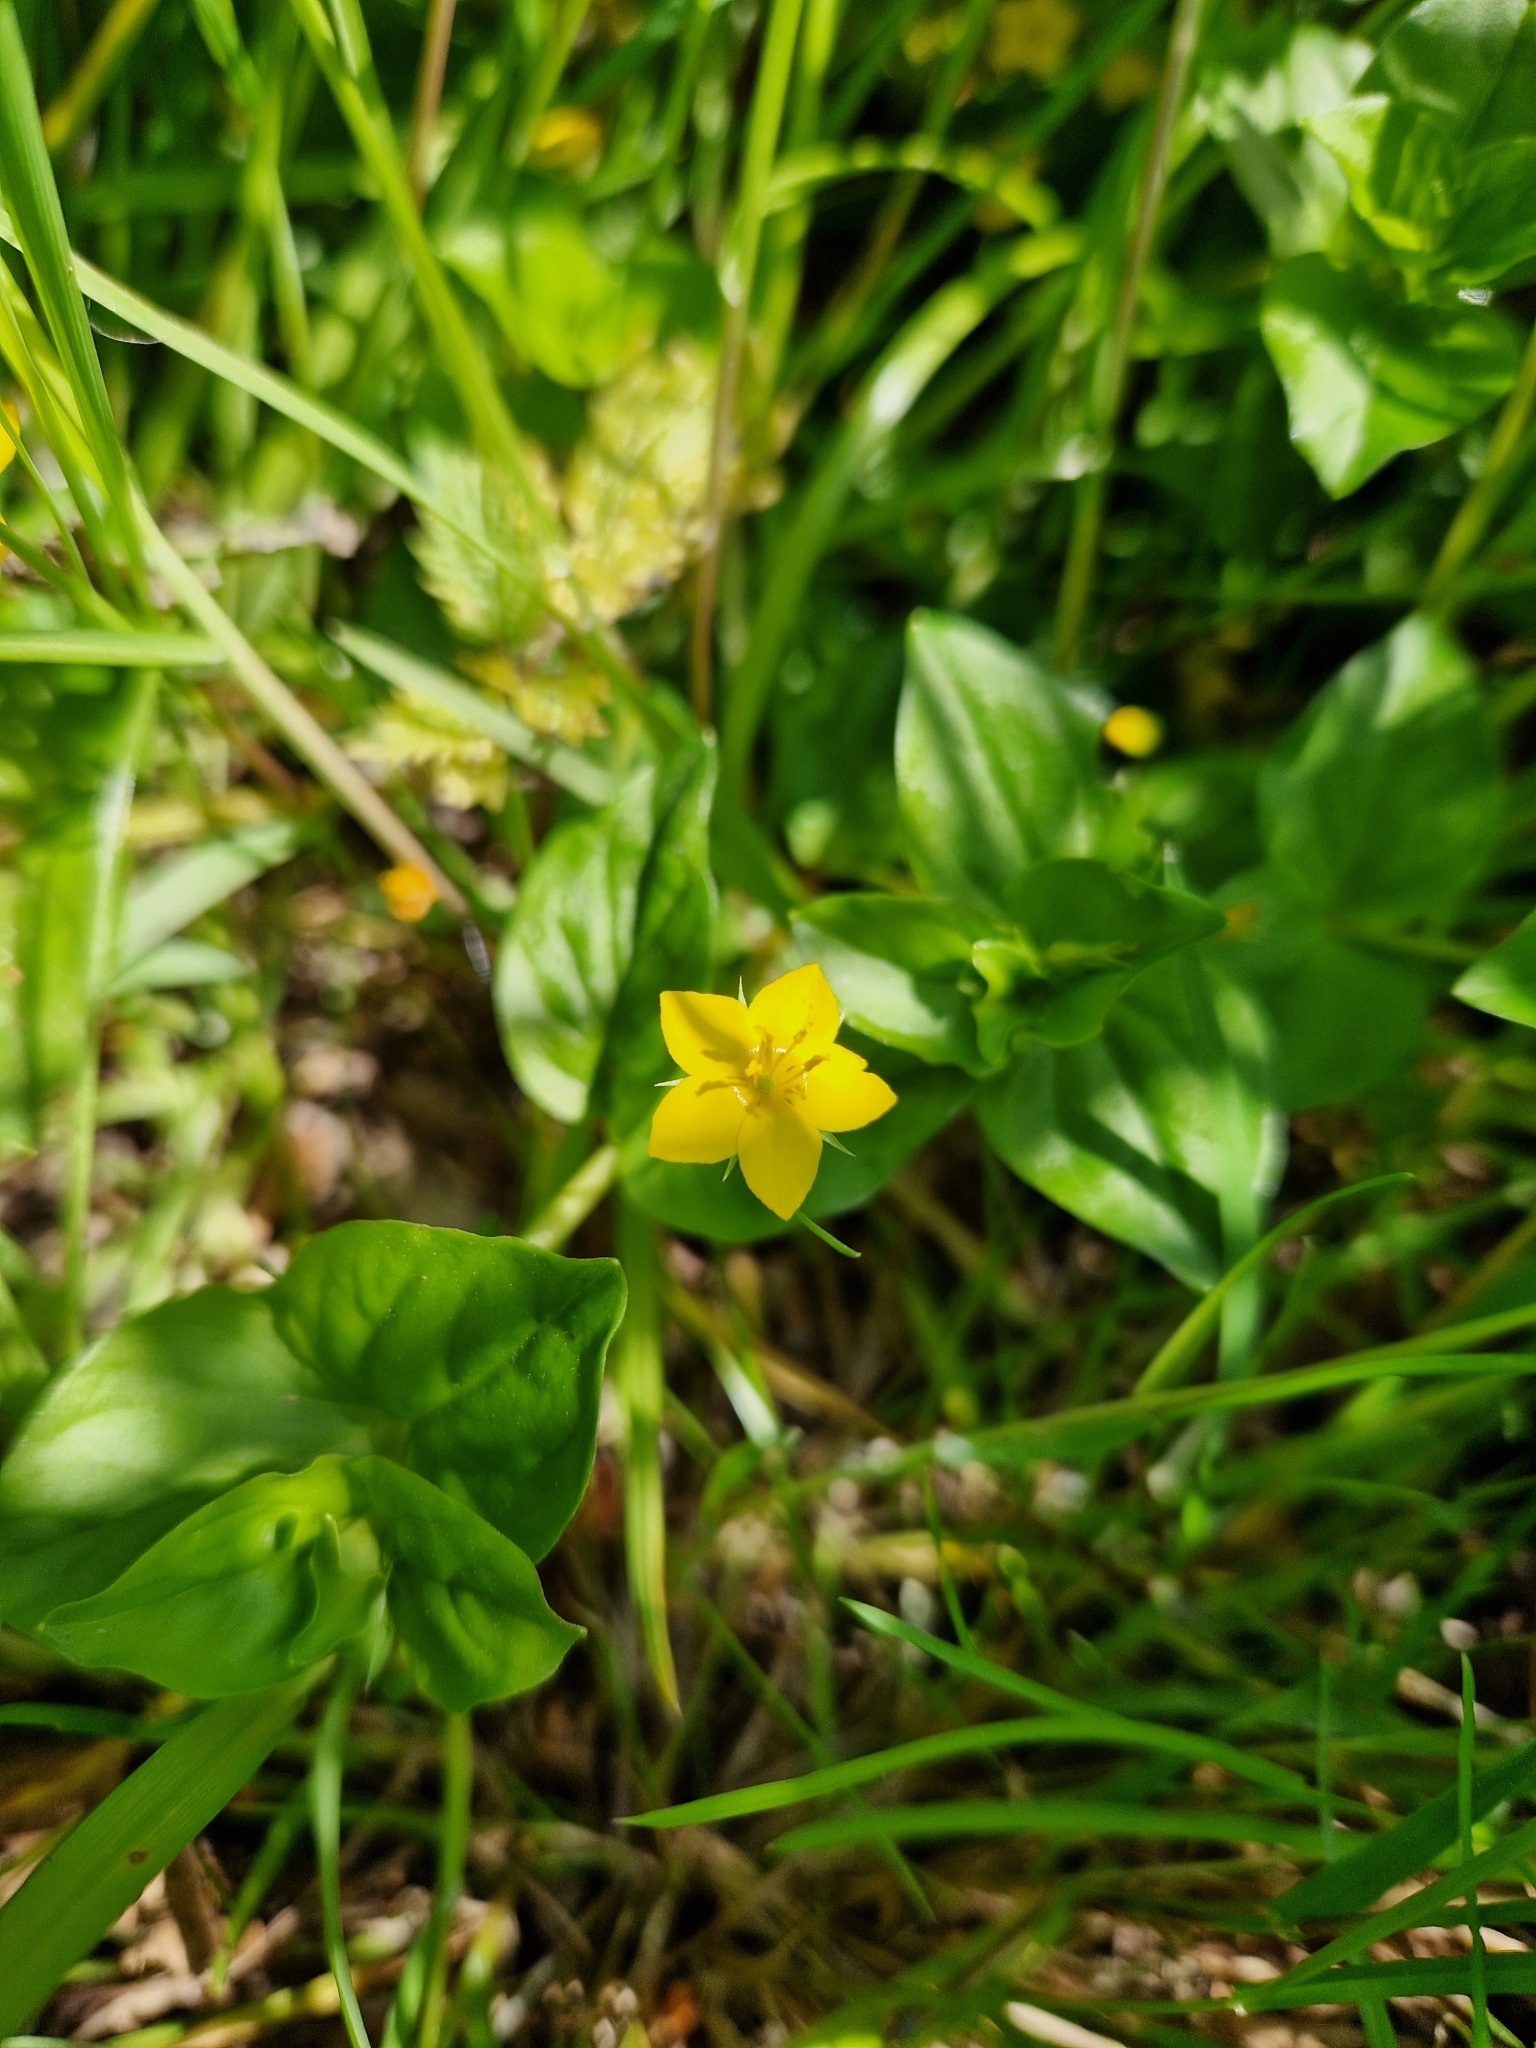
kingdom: Plantae
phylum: Tracheophyta
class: Magnoliopsida
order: Ericales
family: Primulaceae
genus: Lysimachia
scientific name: Lysimachia nemorum
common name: Yellow pimpernel
